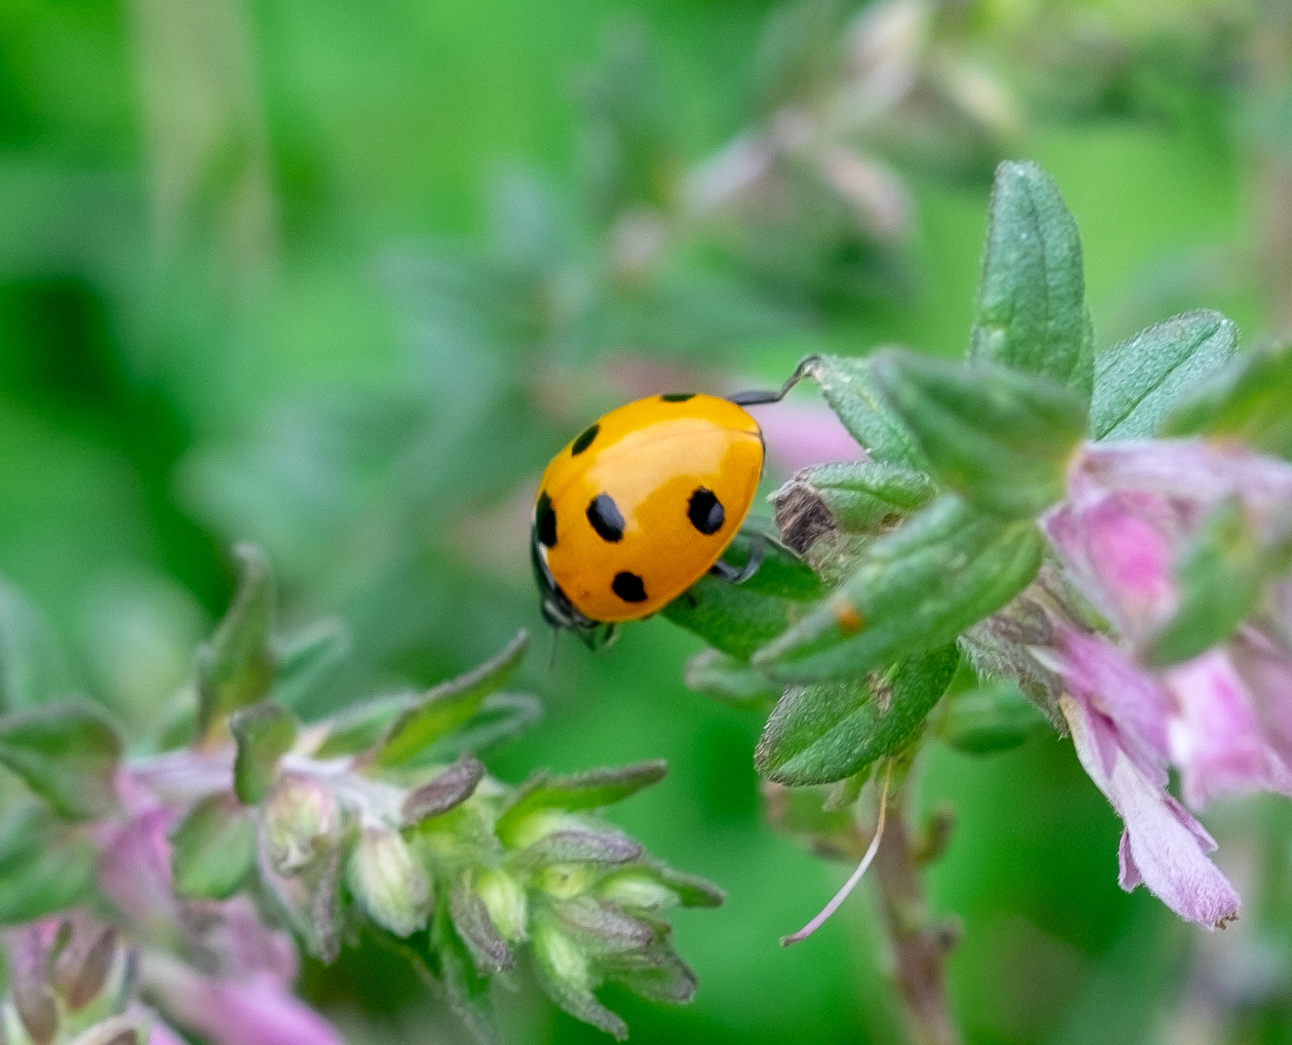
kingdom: Animalia
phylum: Arthropoda
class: Insecta
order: Coleoptera
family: Coccinellidae
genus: Coccinella
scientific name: Coccinella septempunctata
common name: Sevenspotted lady beetle
